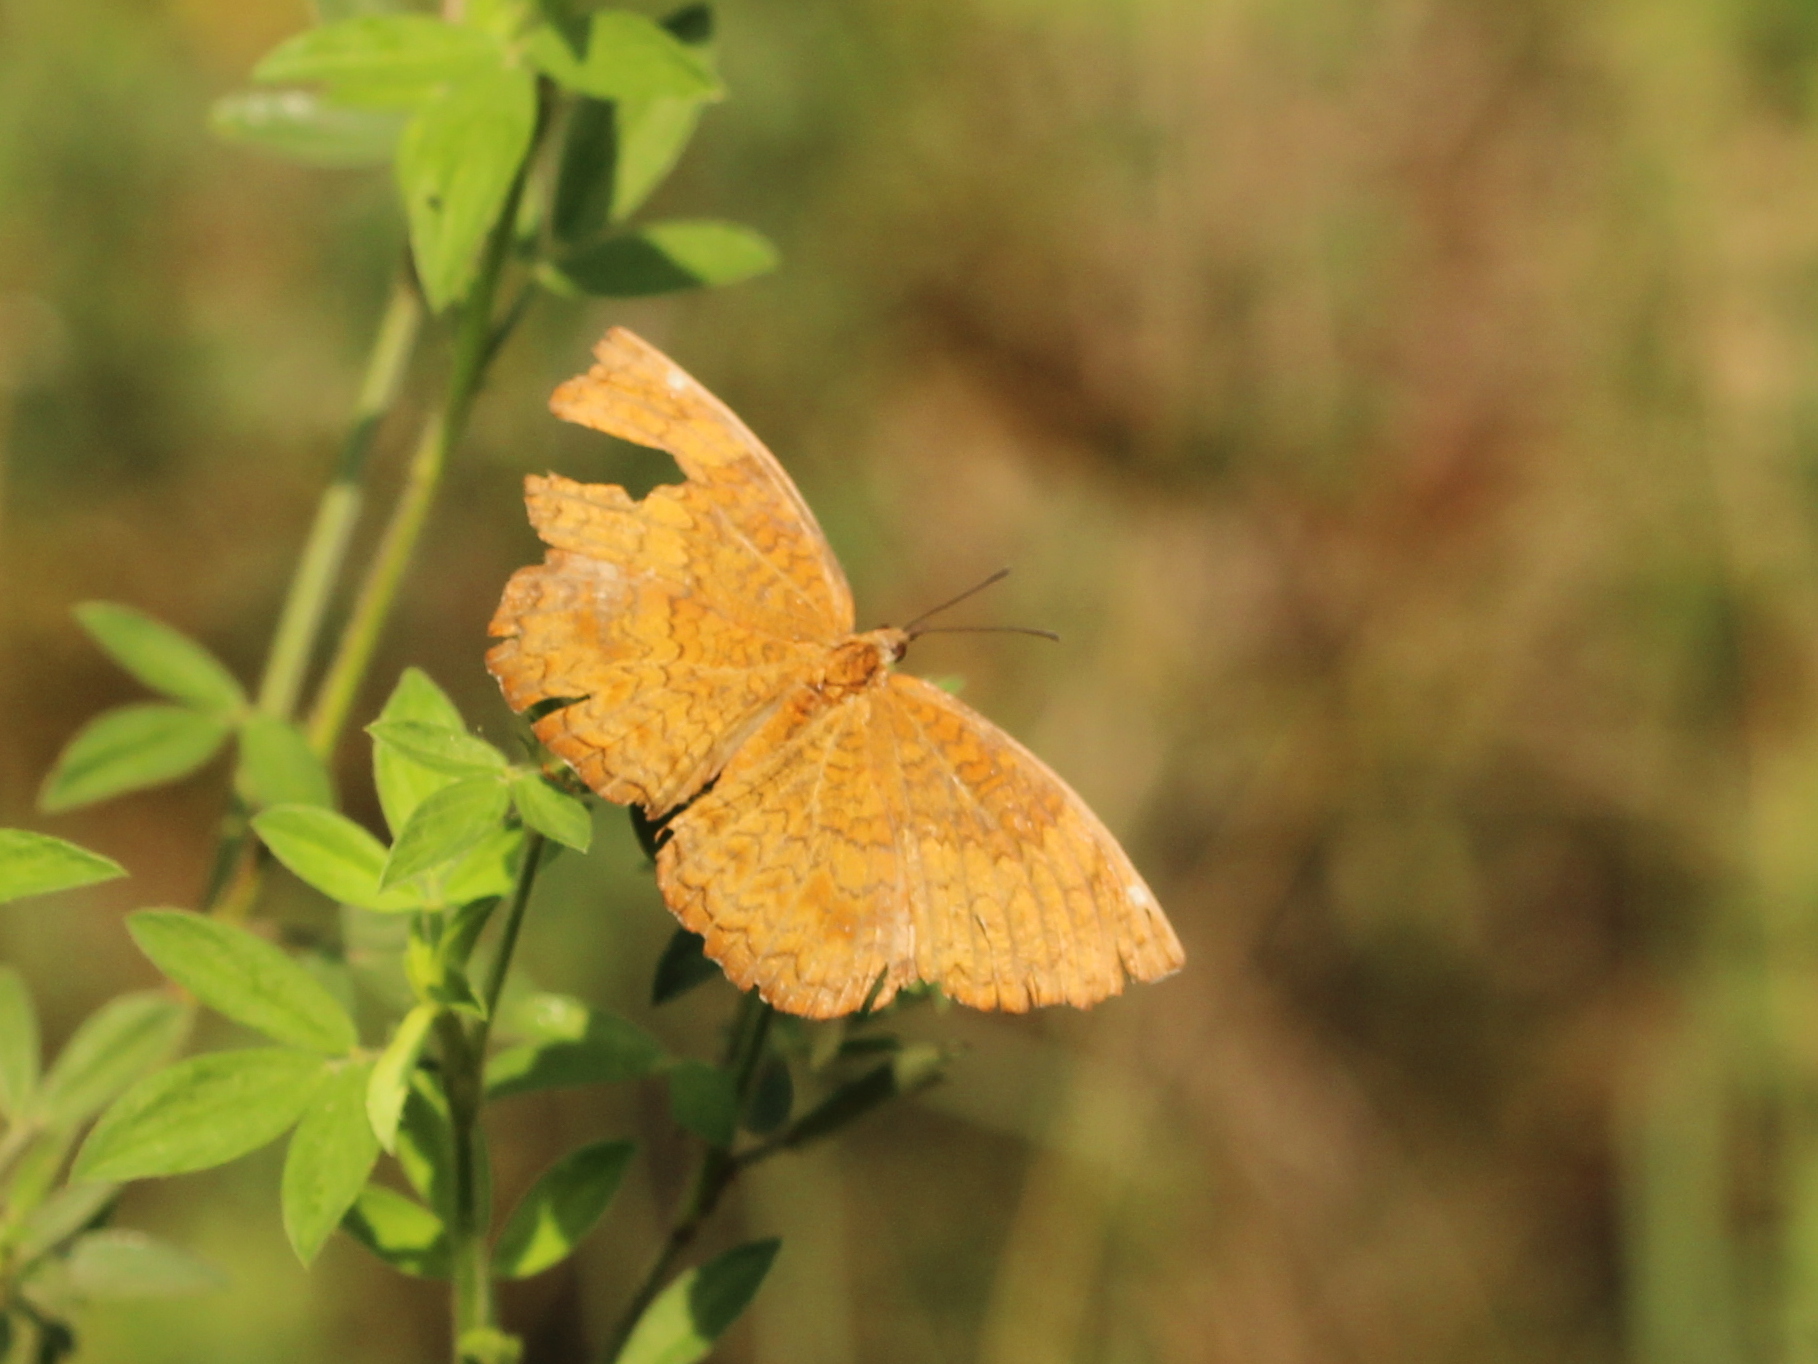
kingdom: Animalia
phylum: Arthropoda
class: Insecta
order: Lepidoptera
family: Nymphalidae
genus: Ariadne
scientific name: Ariadne merione
